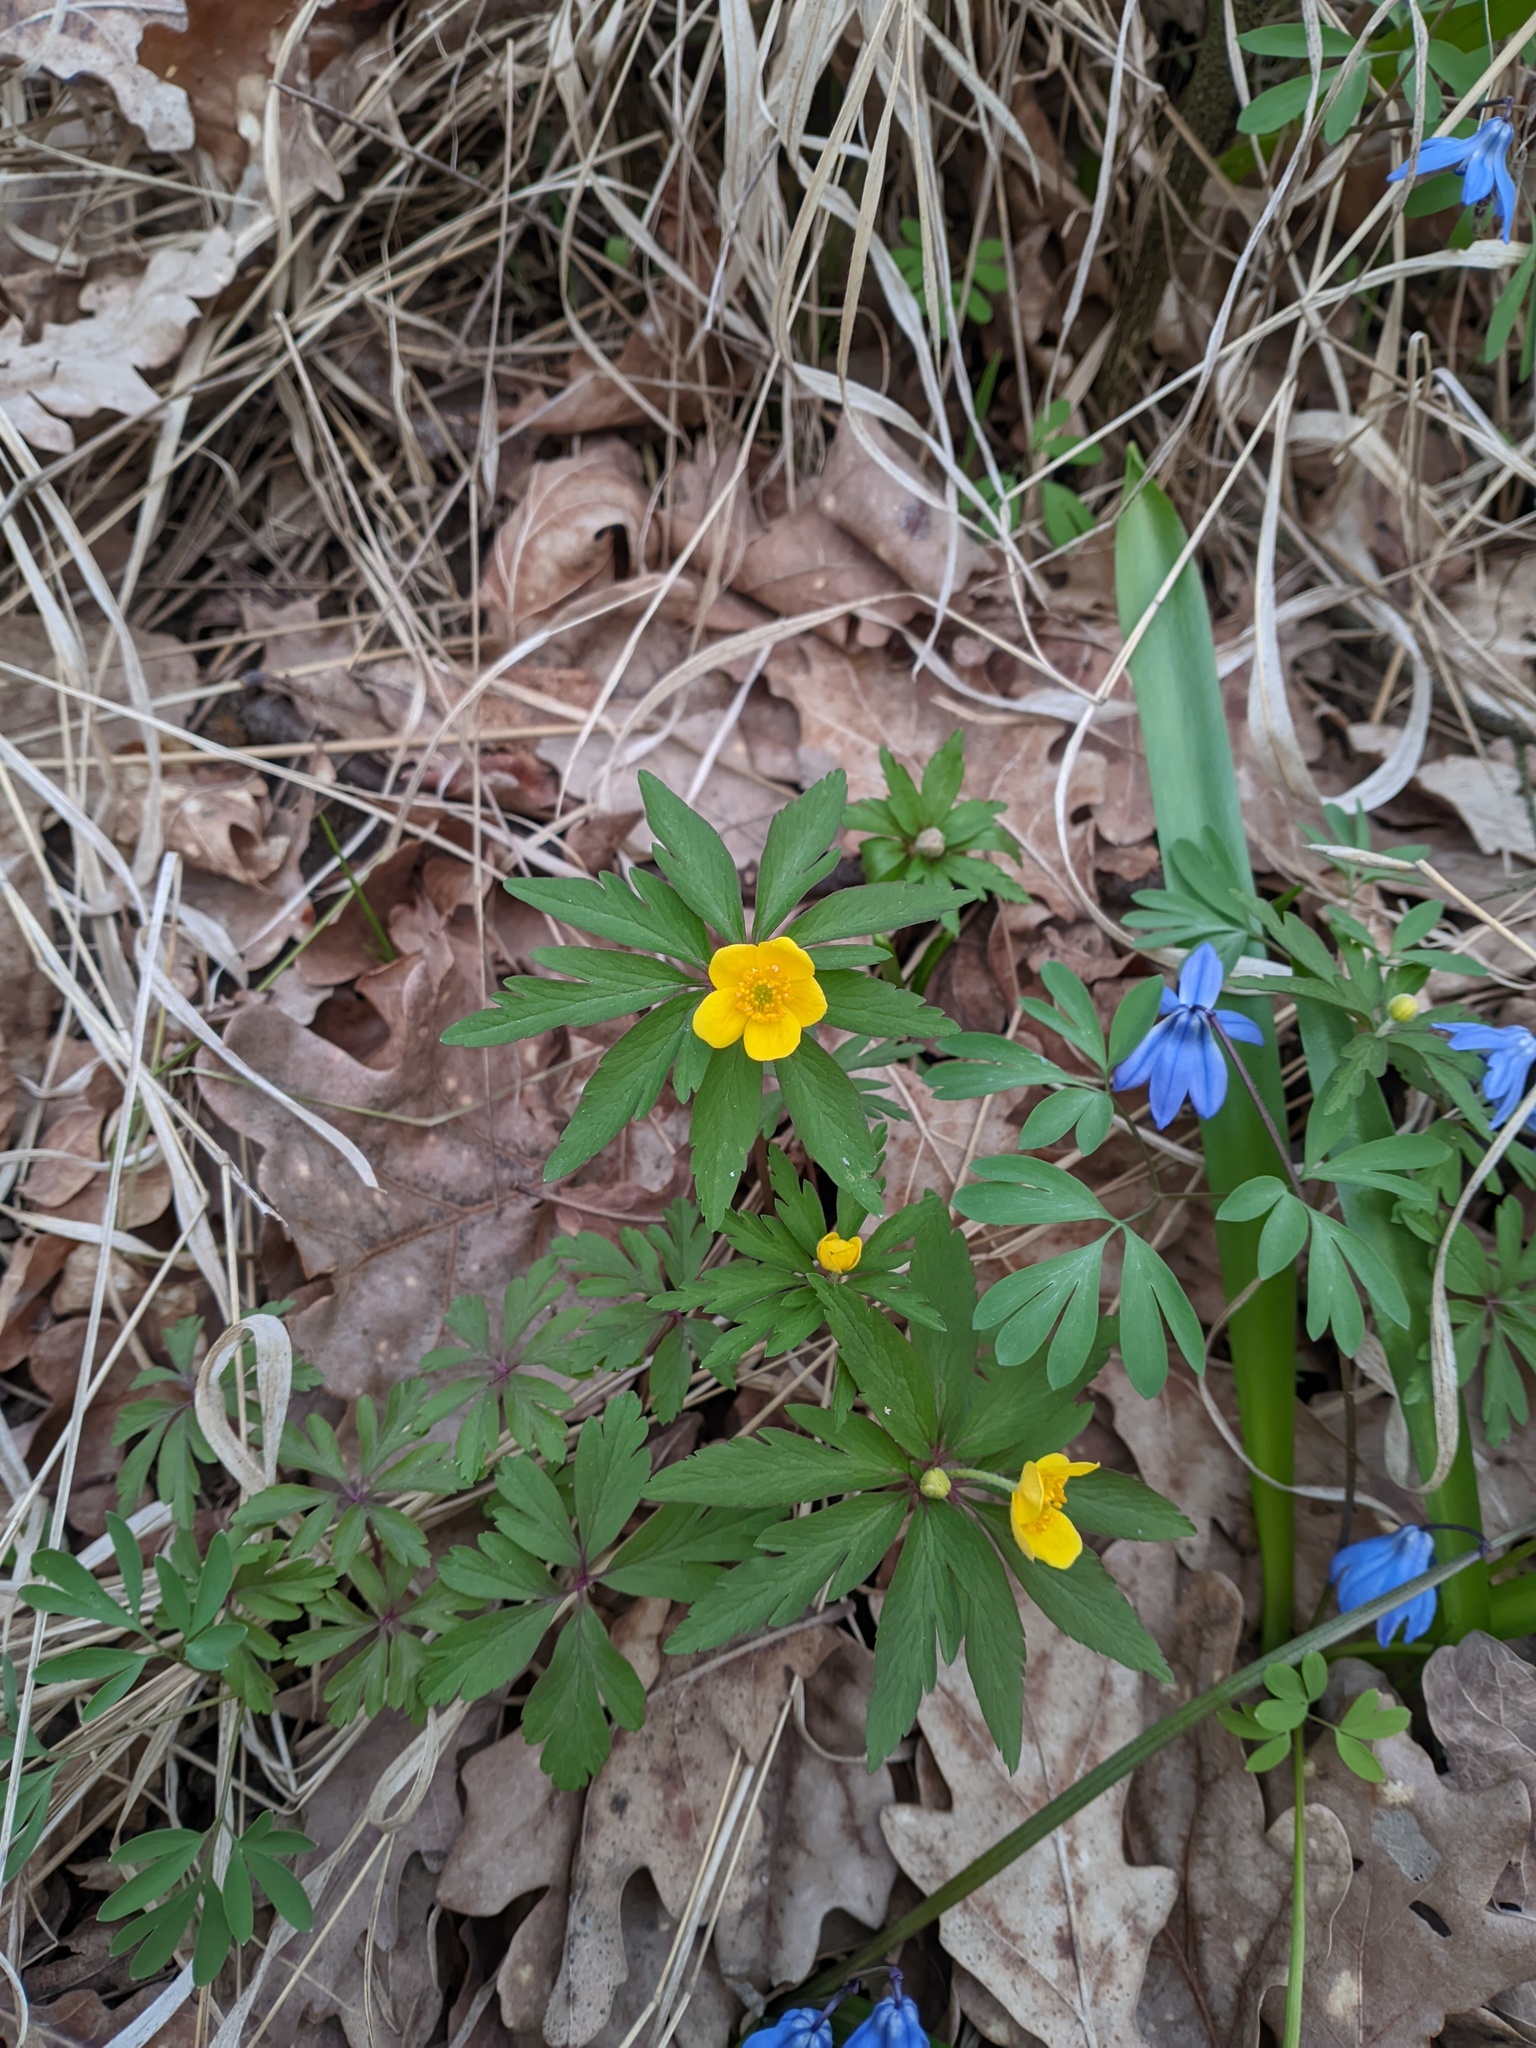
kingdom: Plantae
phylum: Tracheophyta
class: Magnoliopsida
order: Ranunculales
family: Ranunculaceae
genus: Anemone
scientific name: Anemone ranunculoides
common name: Yellow anemone
